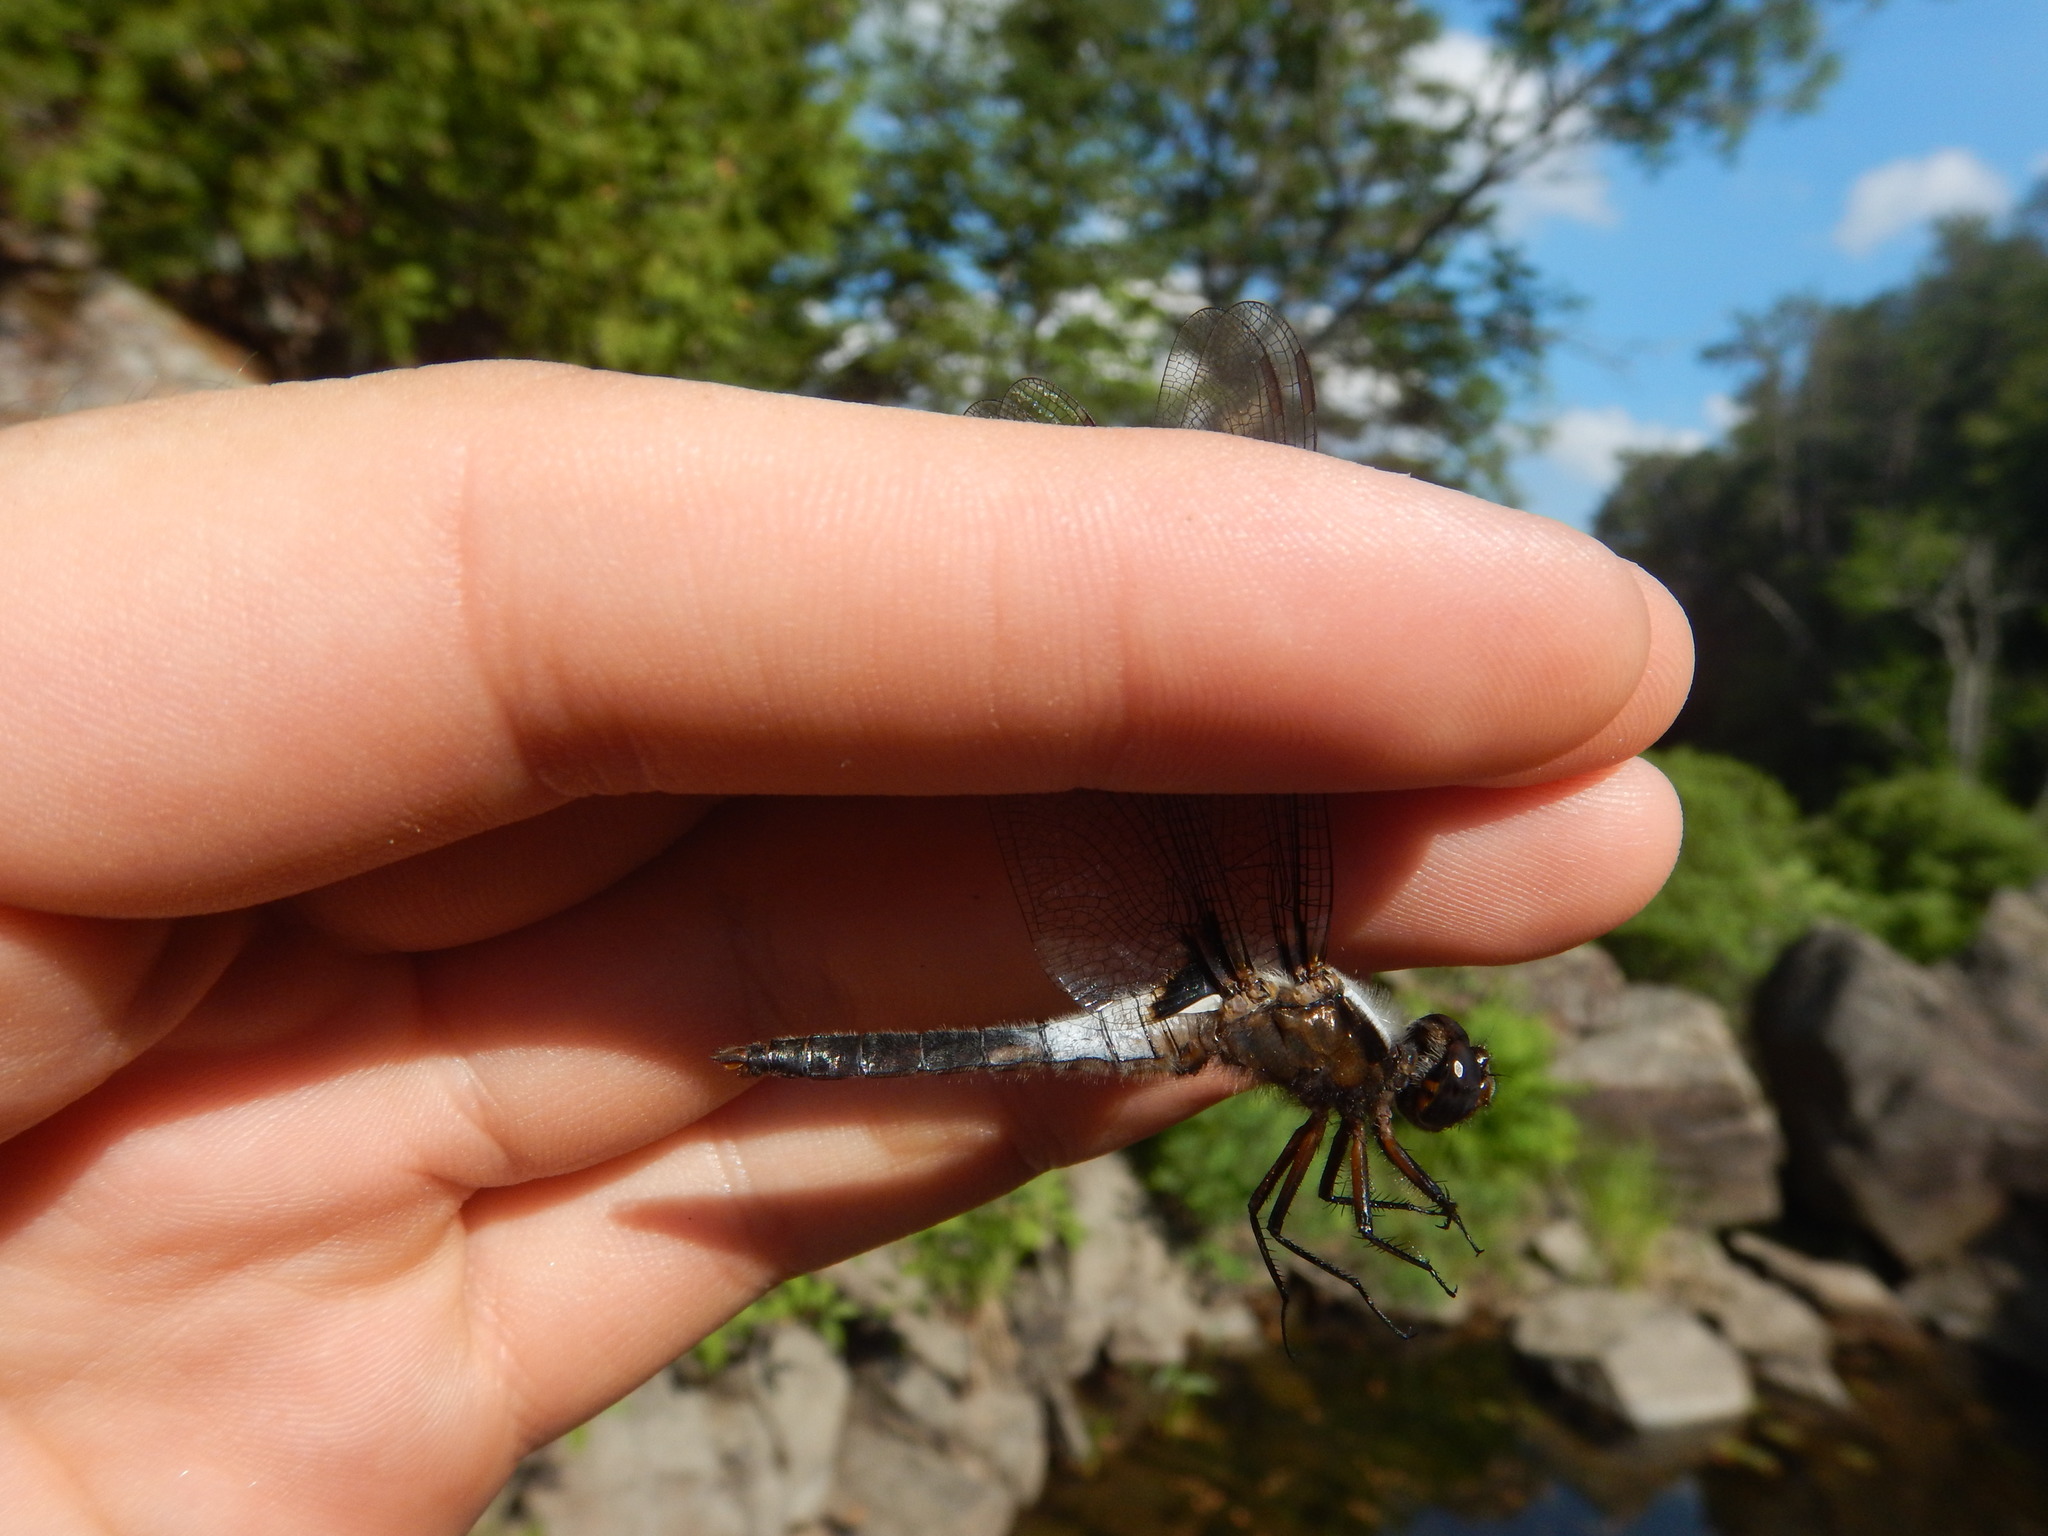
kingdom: Animalia
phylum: Arthropoda
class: Insecta
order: Odonata
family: Libellulidae
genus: Ladona
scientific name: Ladona julia
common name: Chalk-fronted corporal
